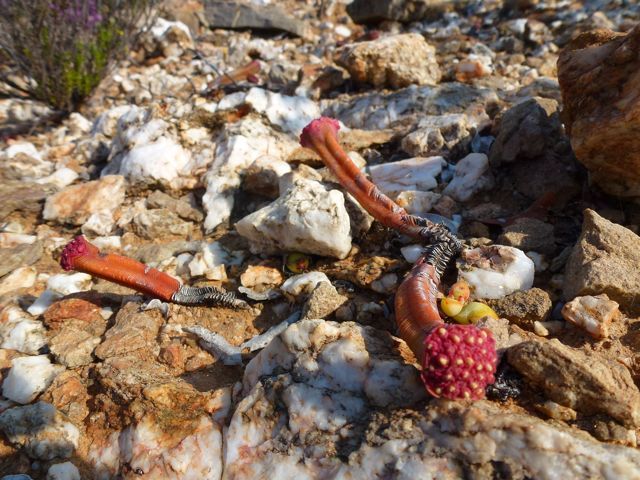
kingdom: Plantae
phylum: Tracheophyta
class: Magnoliopsida
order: Saxifragales
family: Crassulaceae
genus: Crassula
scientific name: Crassula pyramidalis
